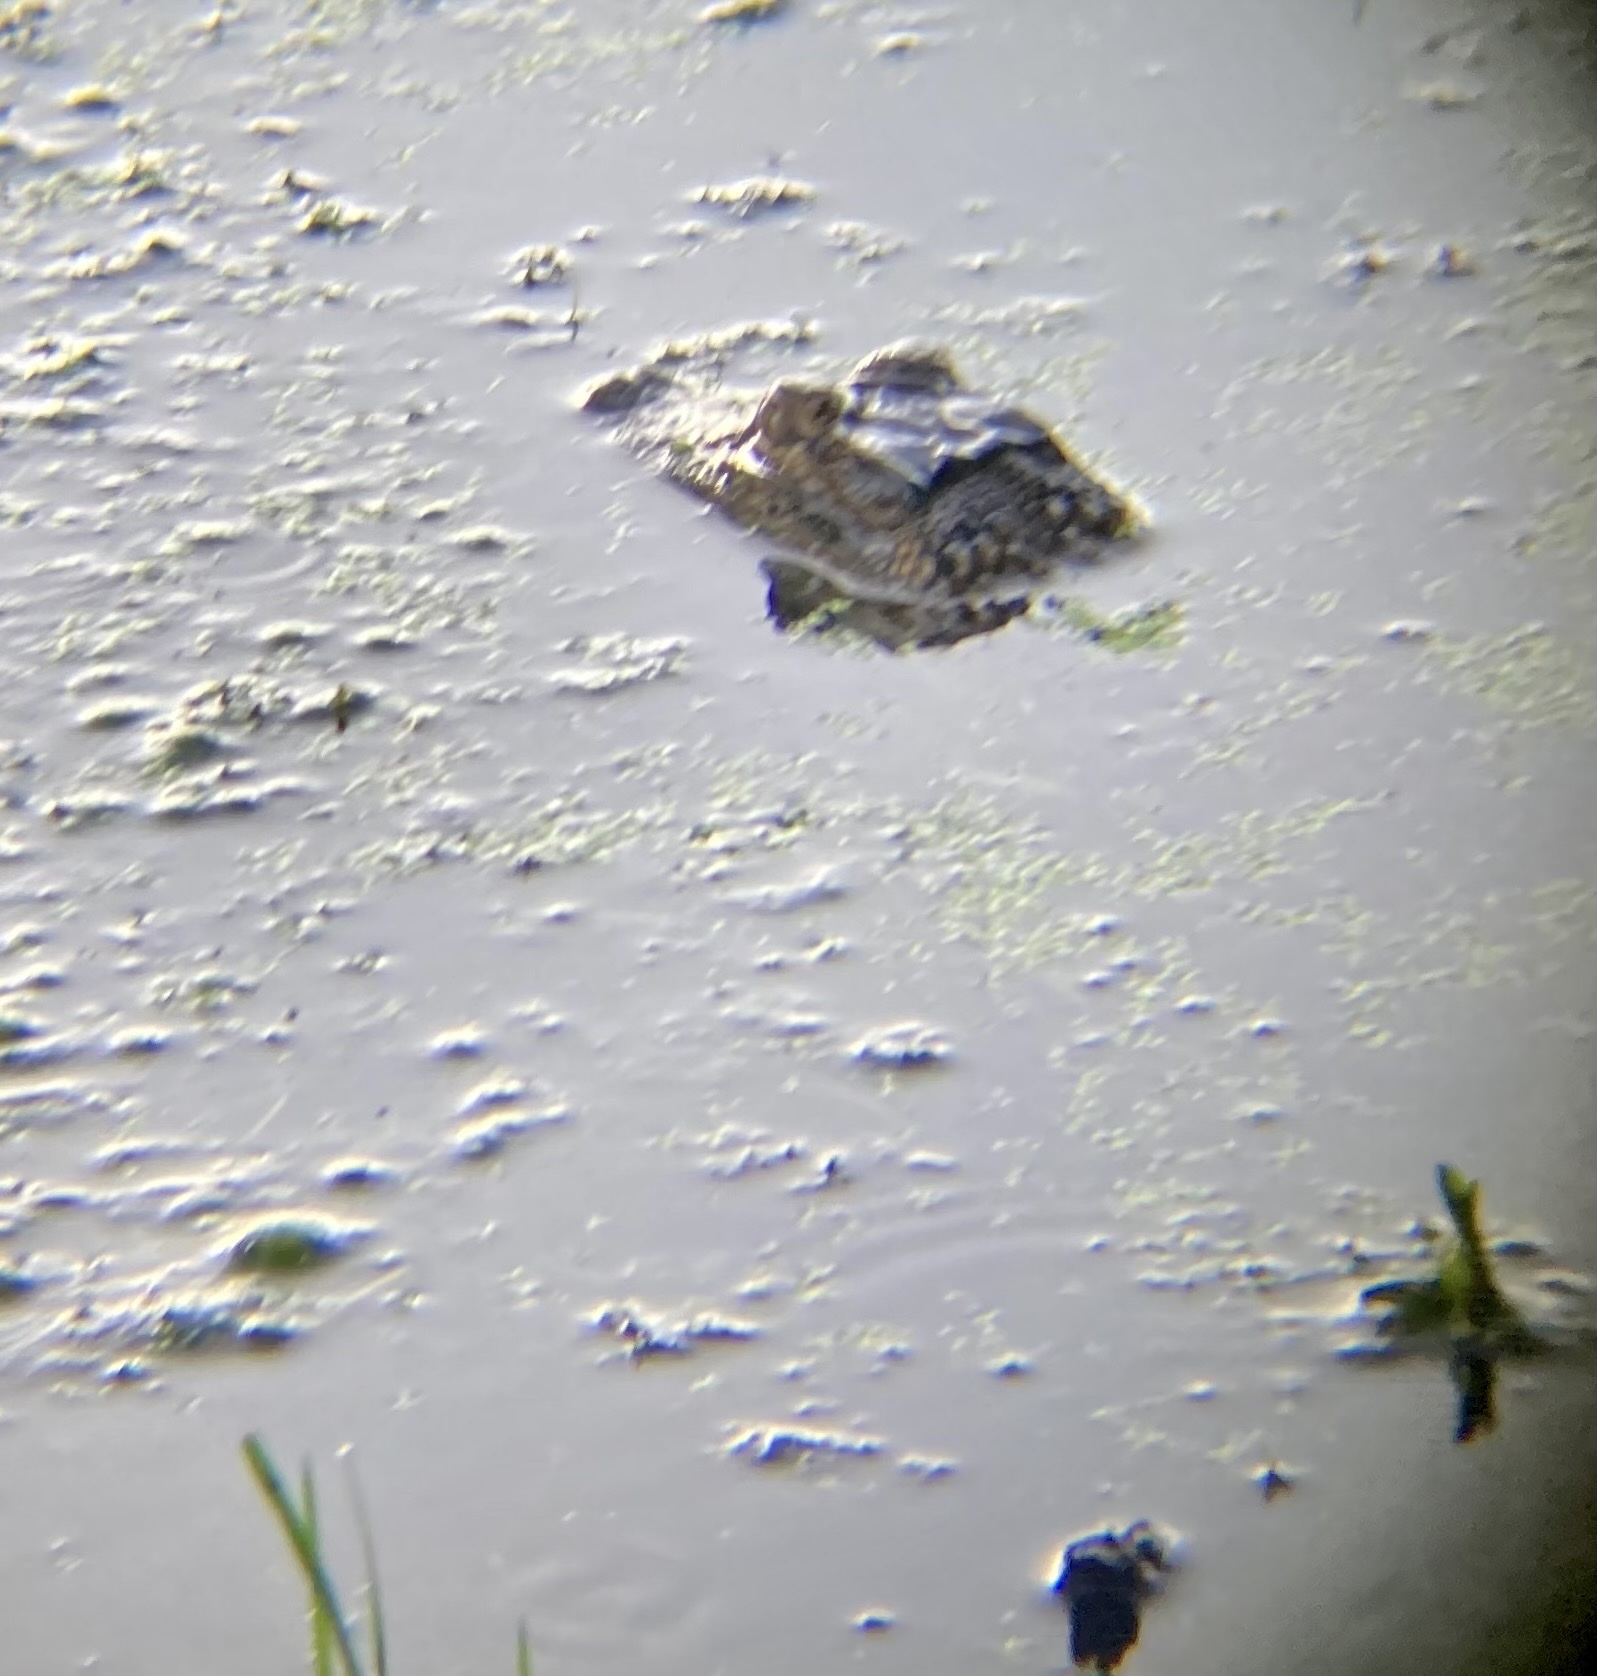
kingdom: Animalia
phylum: Chordata
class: Crocodylia
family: Alligatoridae
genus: Alligator
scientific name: Alligator mississippiensis
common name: American alligator
